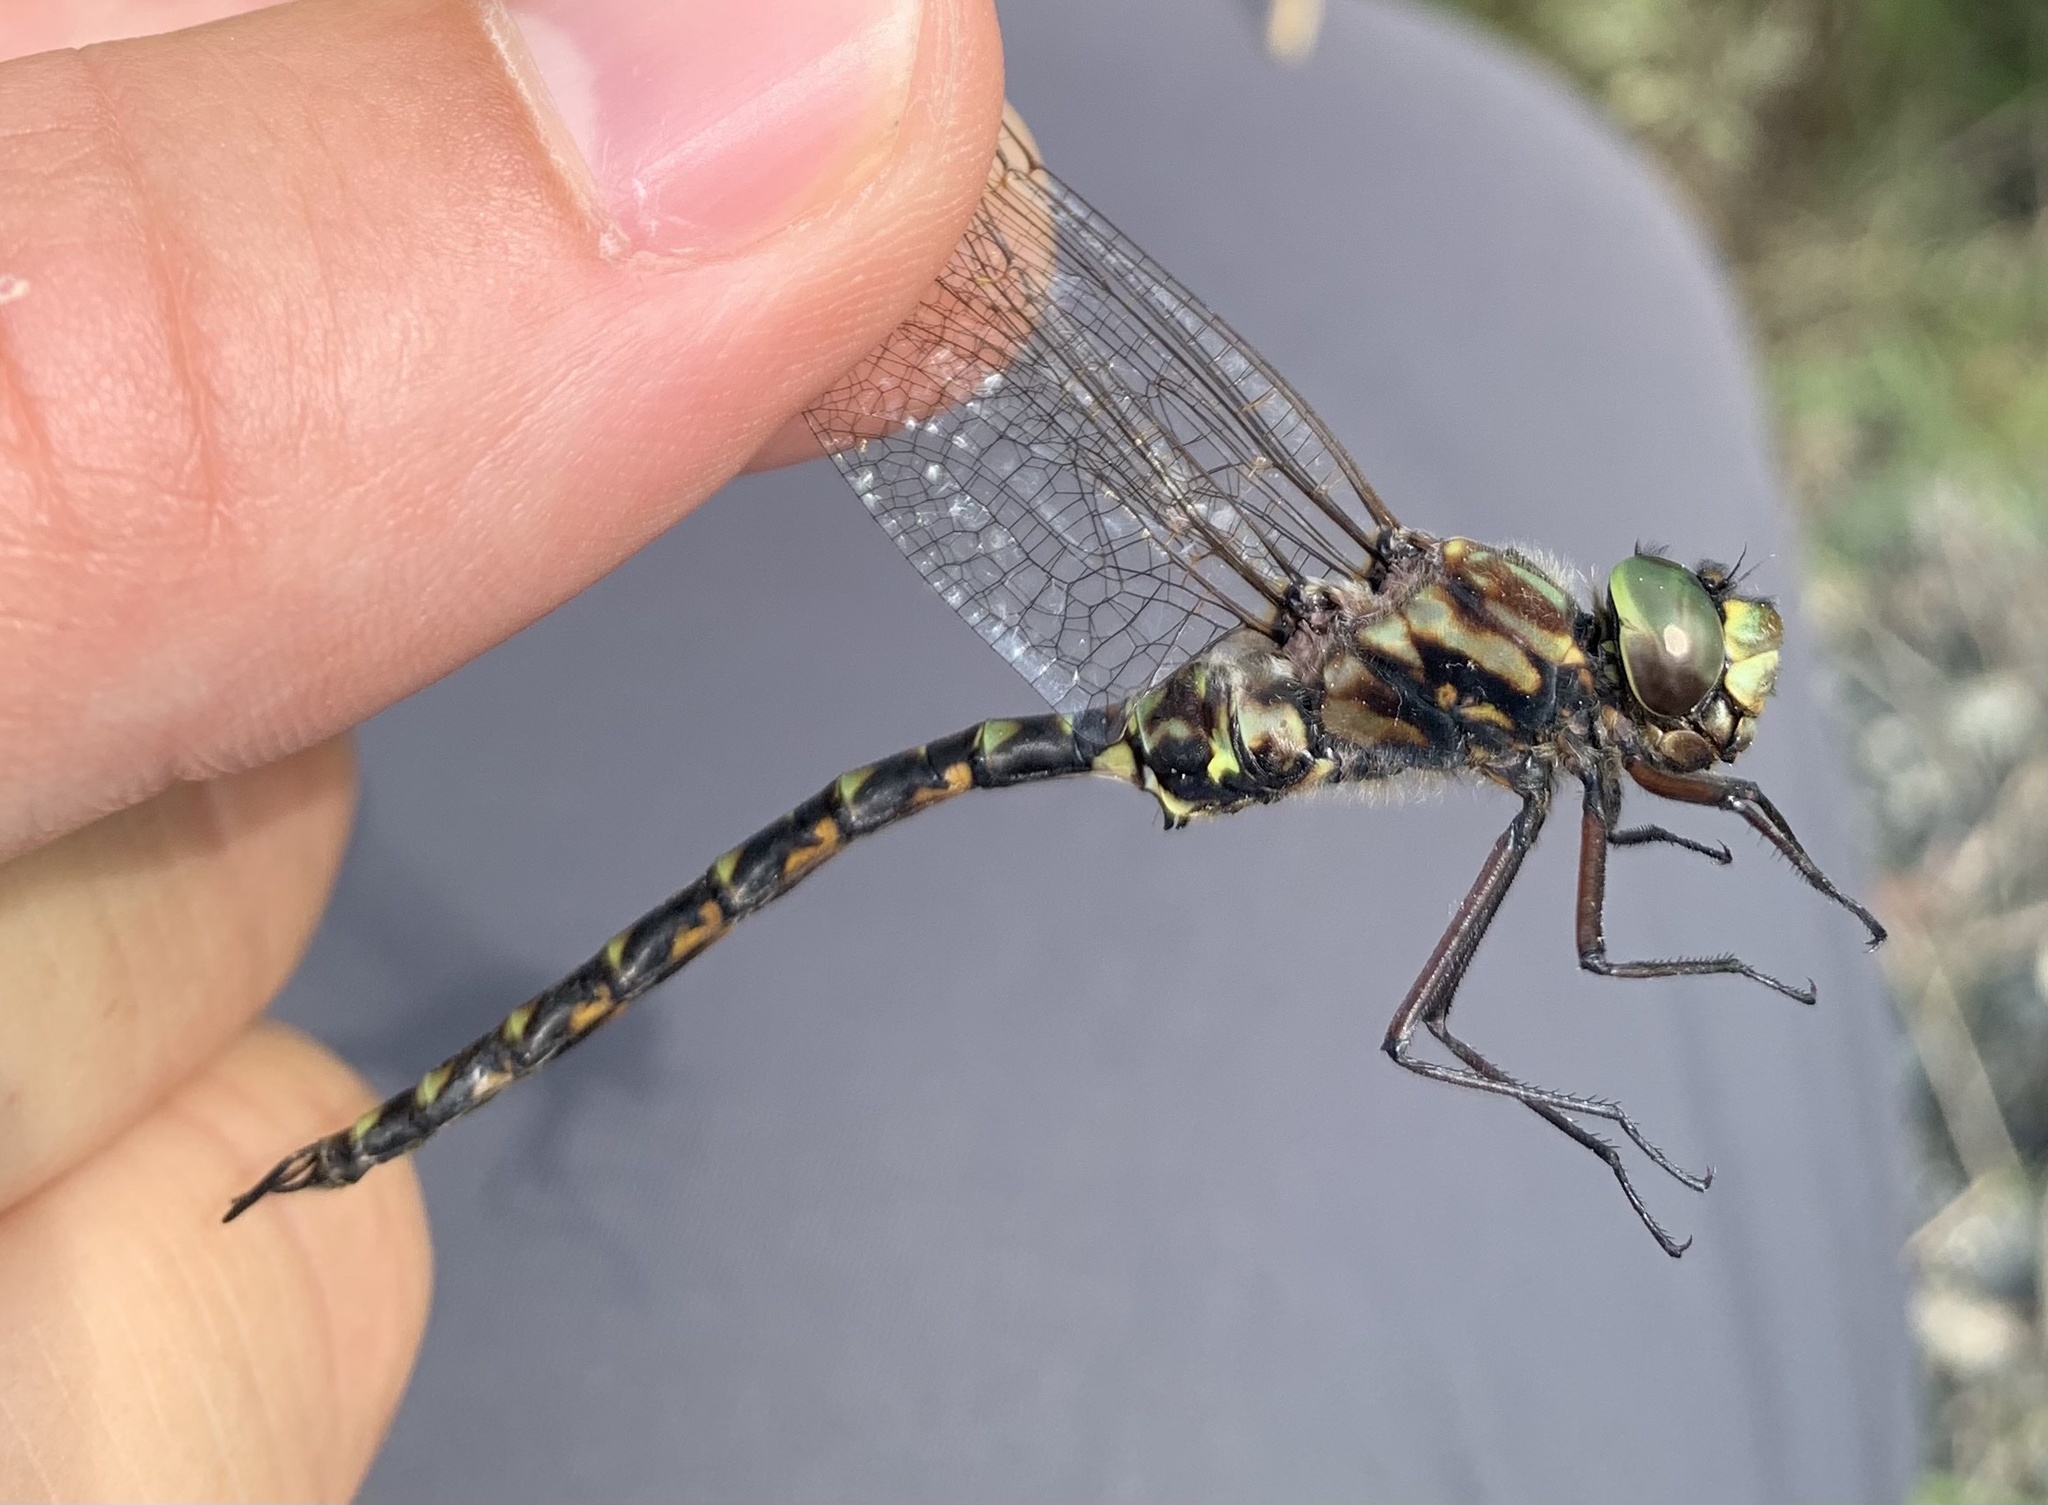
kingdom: Animalia
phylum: Arthropoda
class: Insecta
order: Odonata
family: Aeshnidae
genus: Gomphaeschna
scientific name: Gomphaeschna furcillata
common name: Harlequin darner
